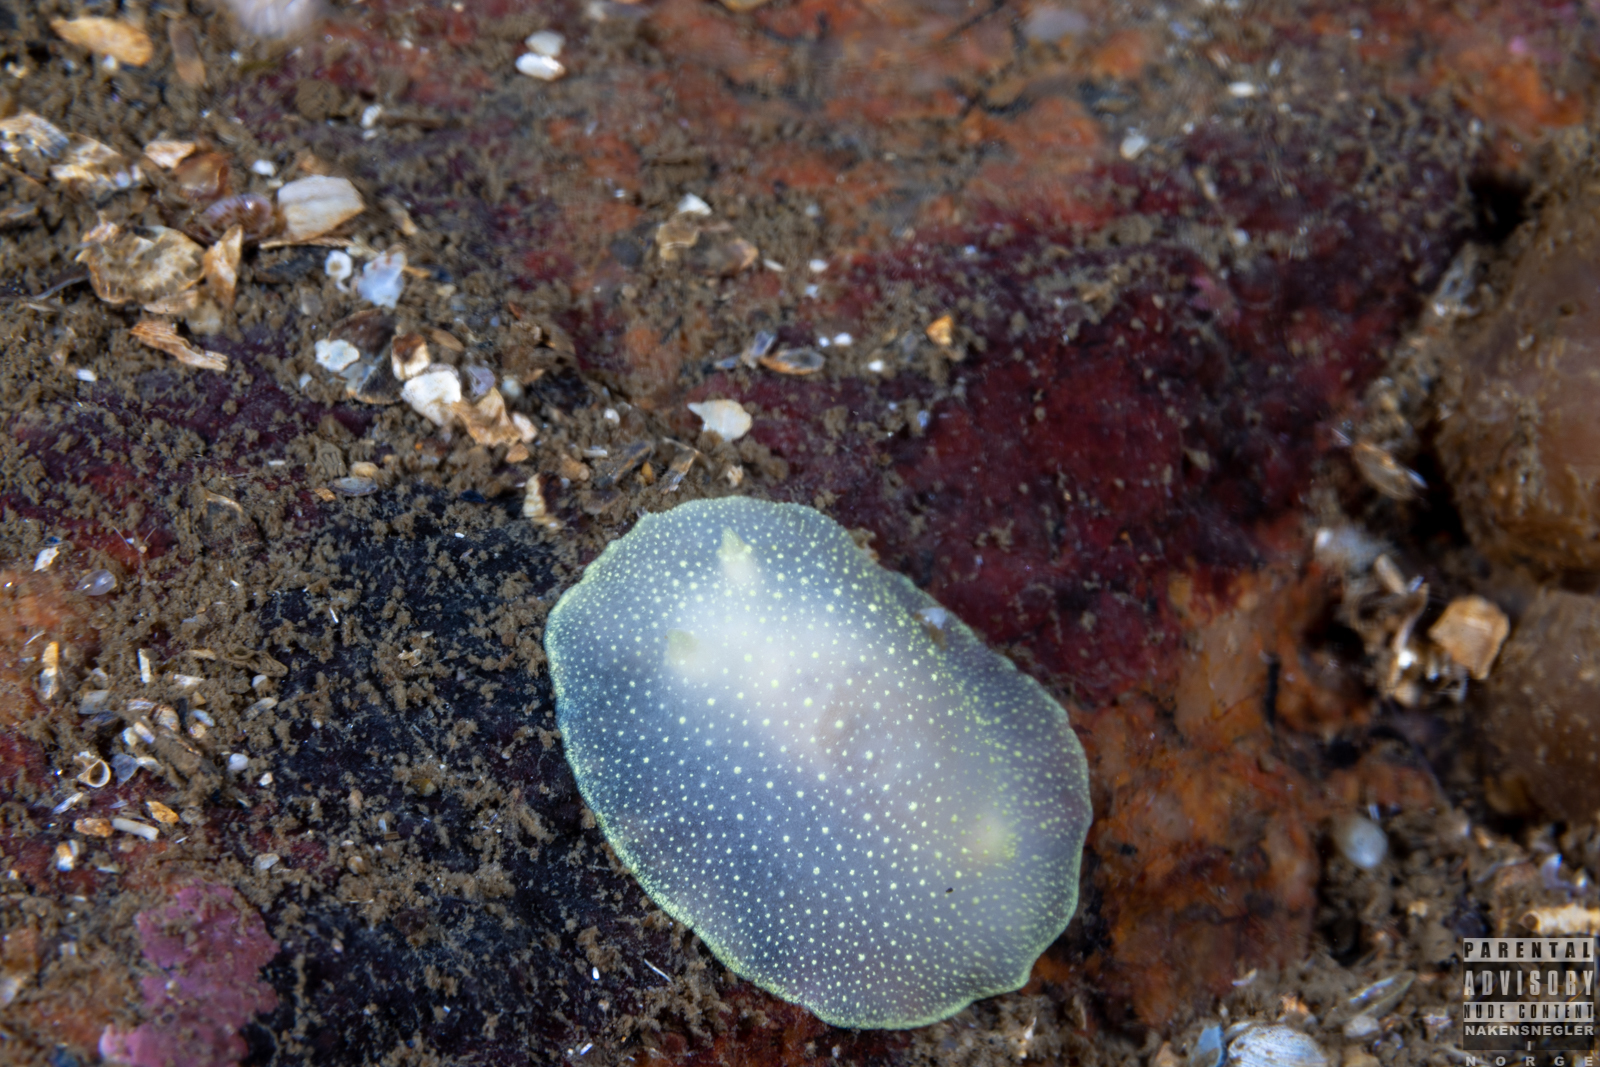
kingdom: Animalia
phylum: Mollusca
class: Gastropoda
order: Nudibranchia
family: Cadlinidae
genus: Cadlina
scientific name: Cadlina laevis
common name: White atlantic cadlina
